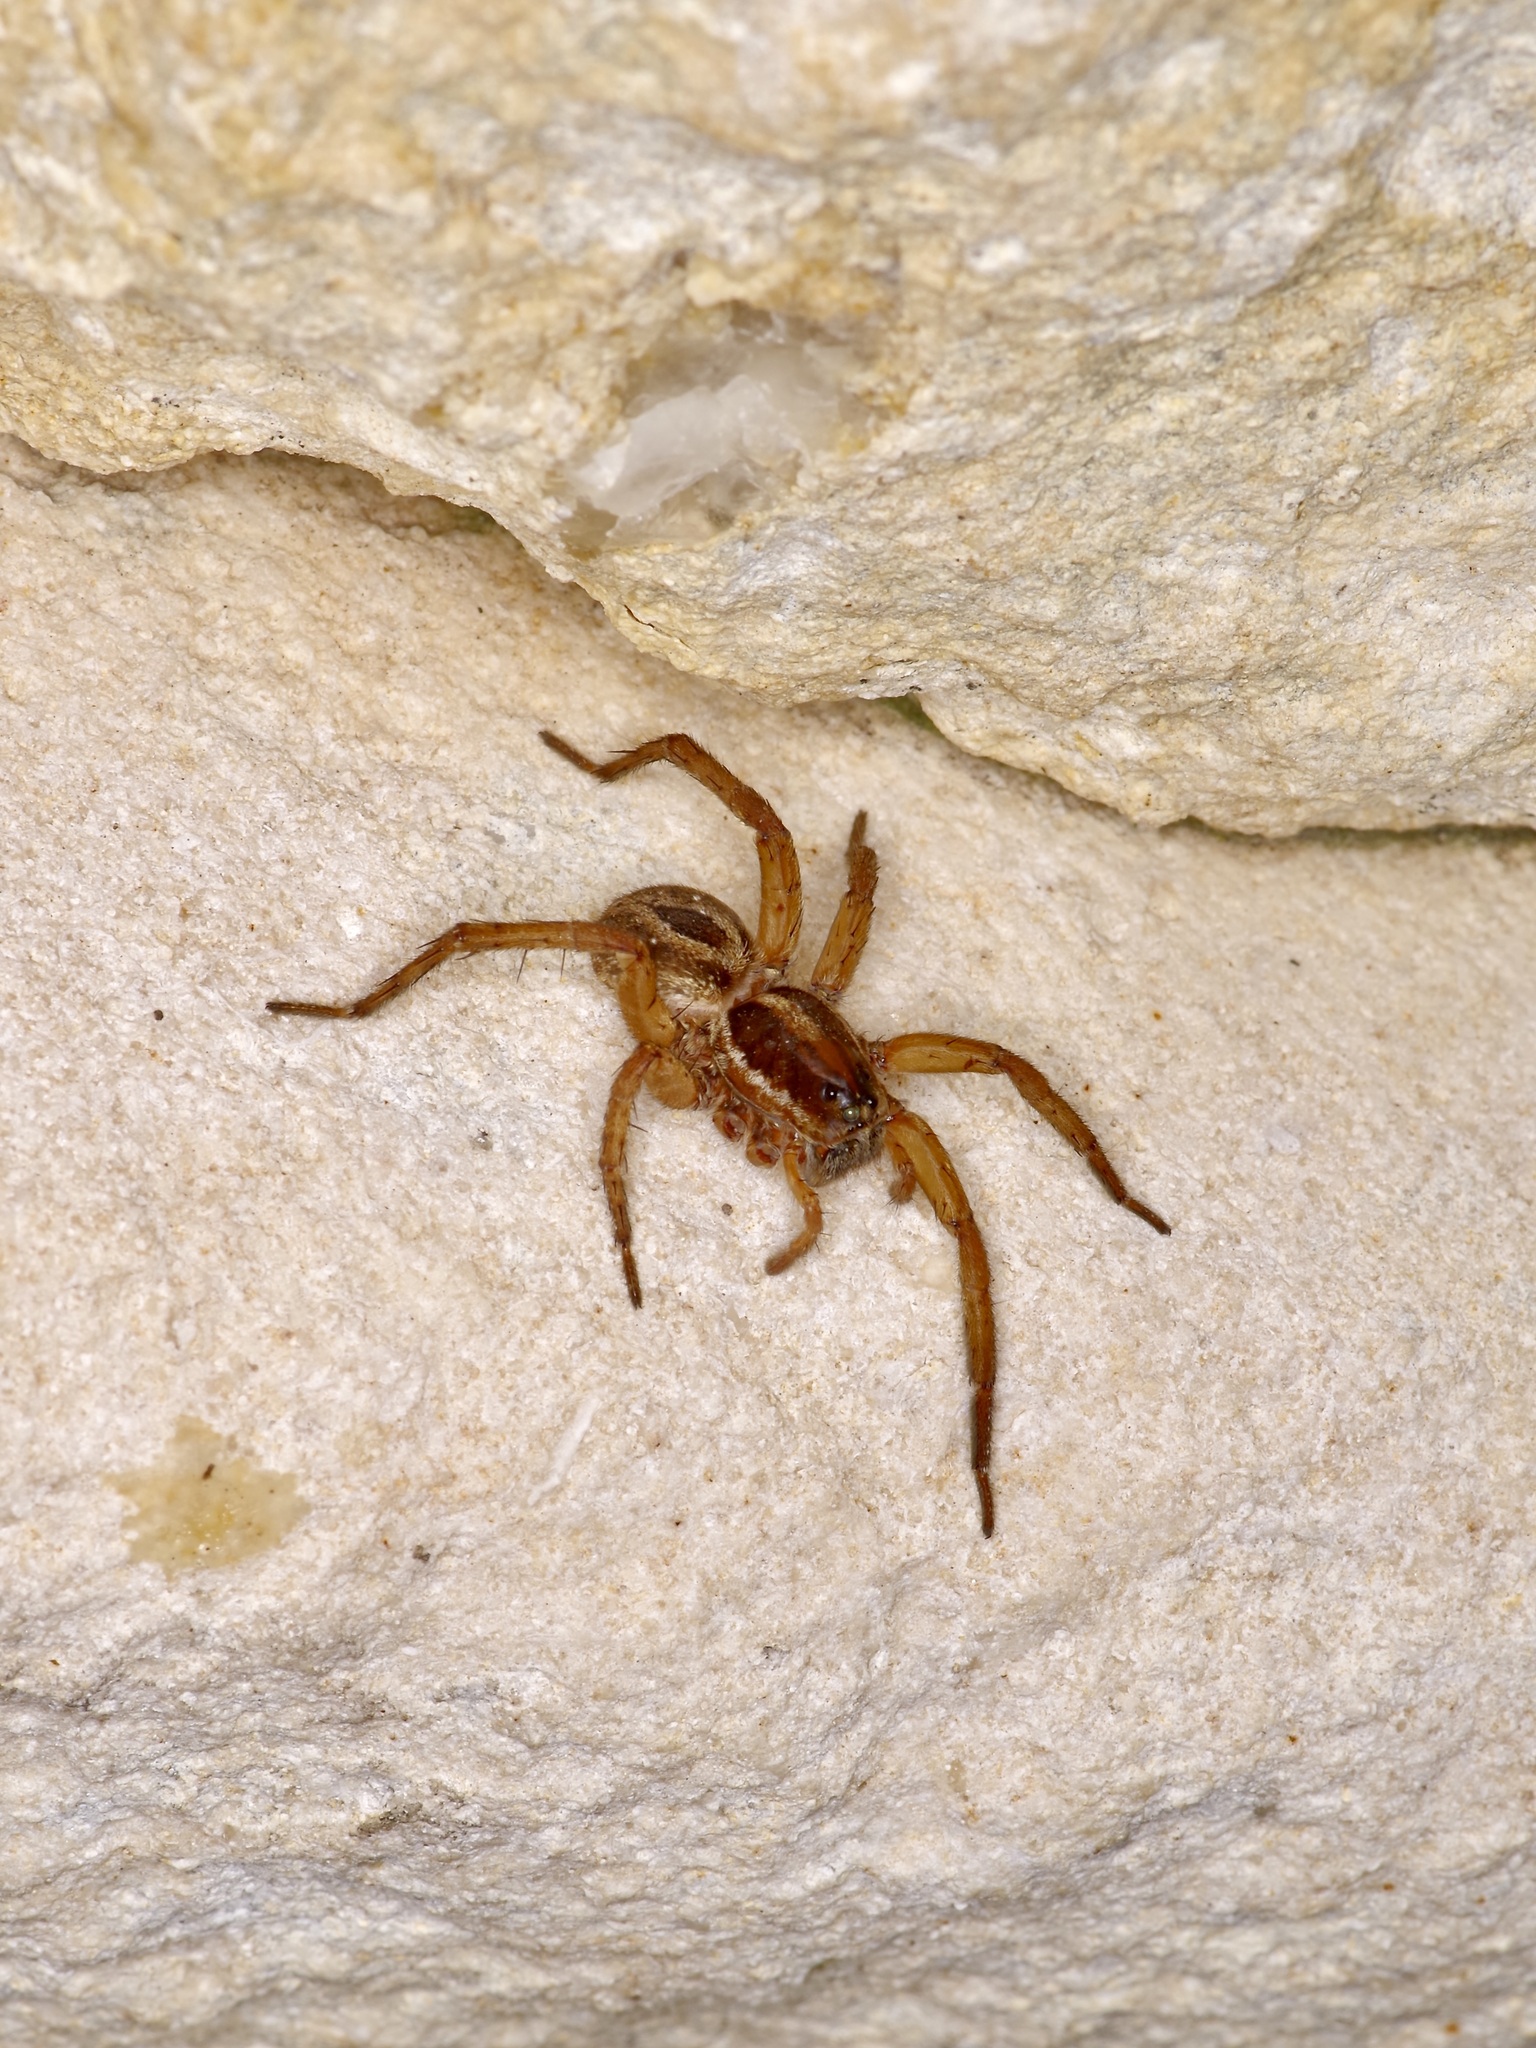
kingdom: Animalia
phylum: Arthropoda
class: Arachnida
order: Araneae
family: Lycosidae
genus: Tigrosa
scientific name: Tigrosa annexa
